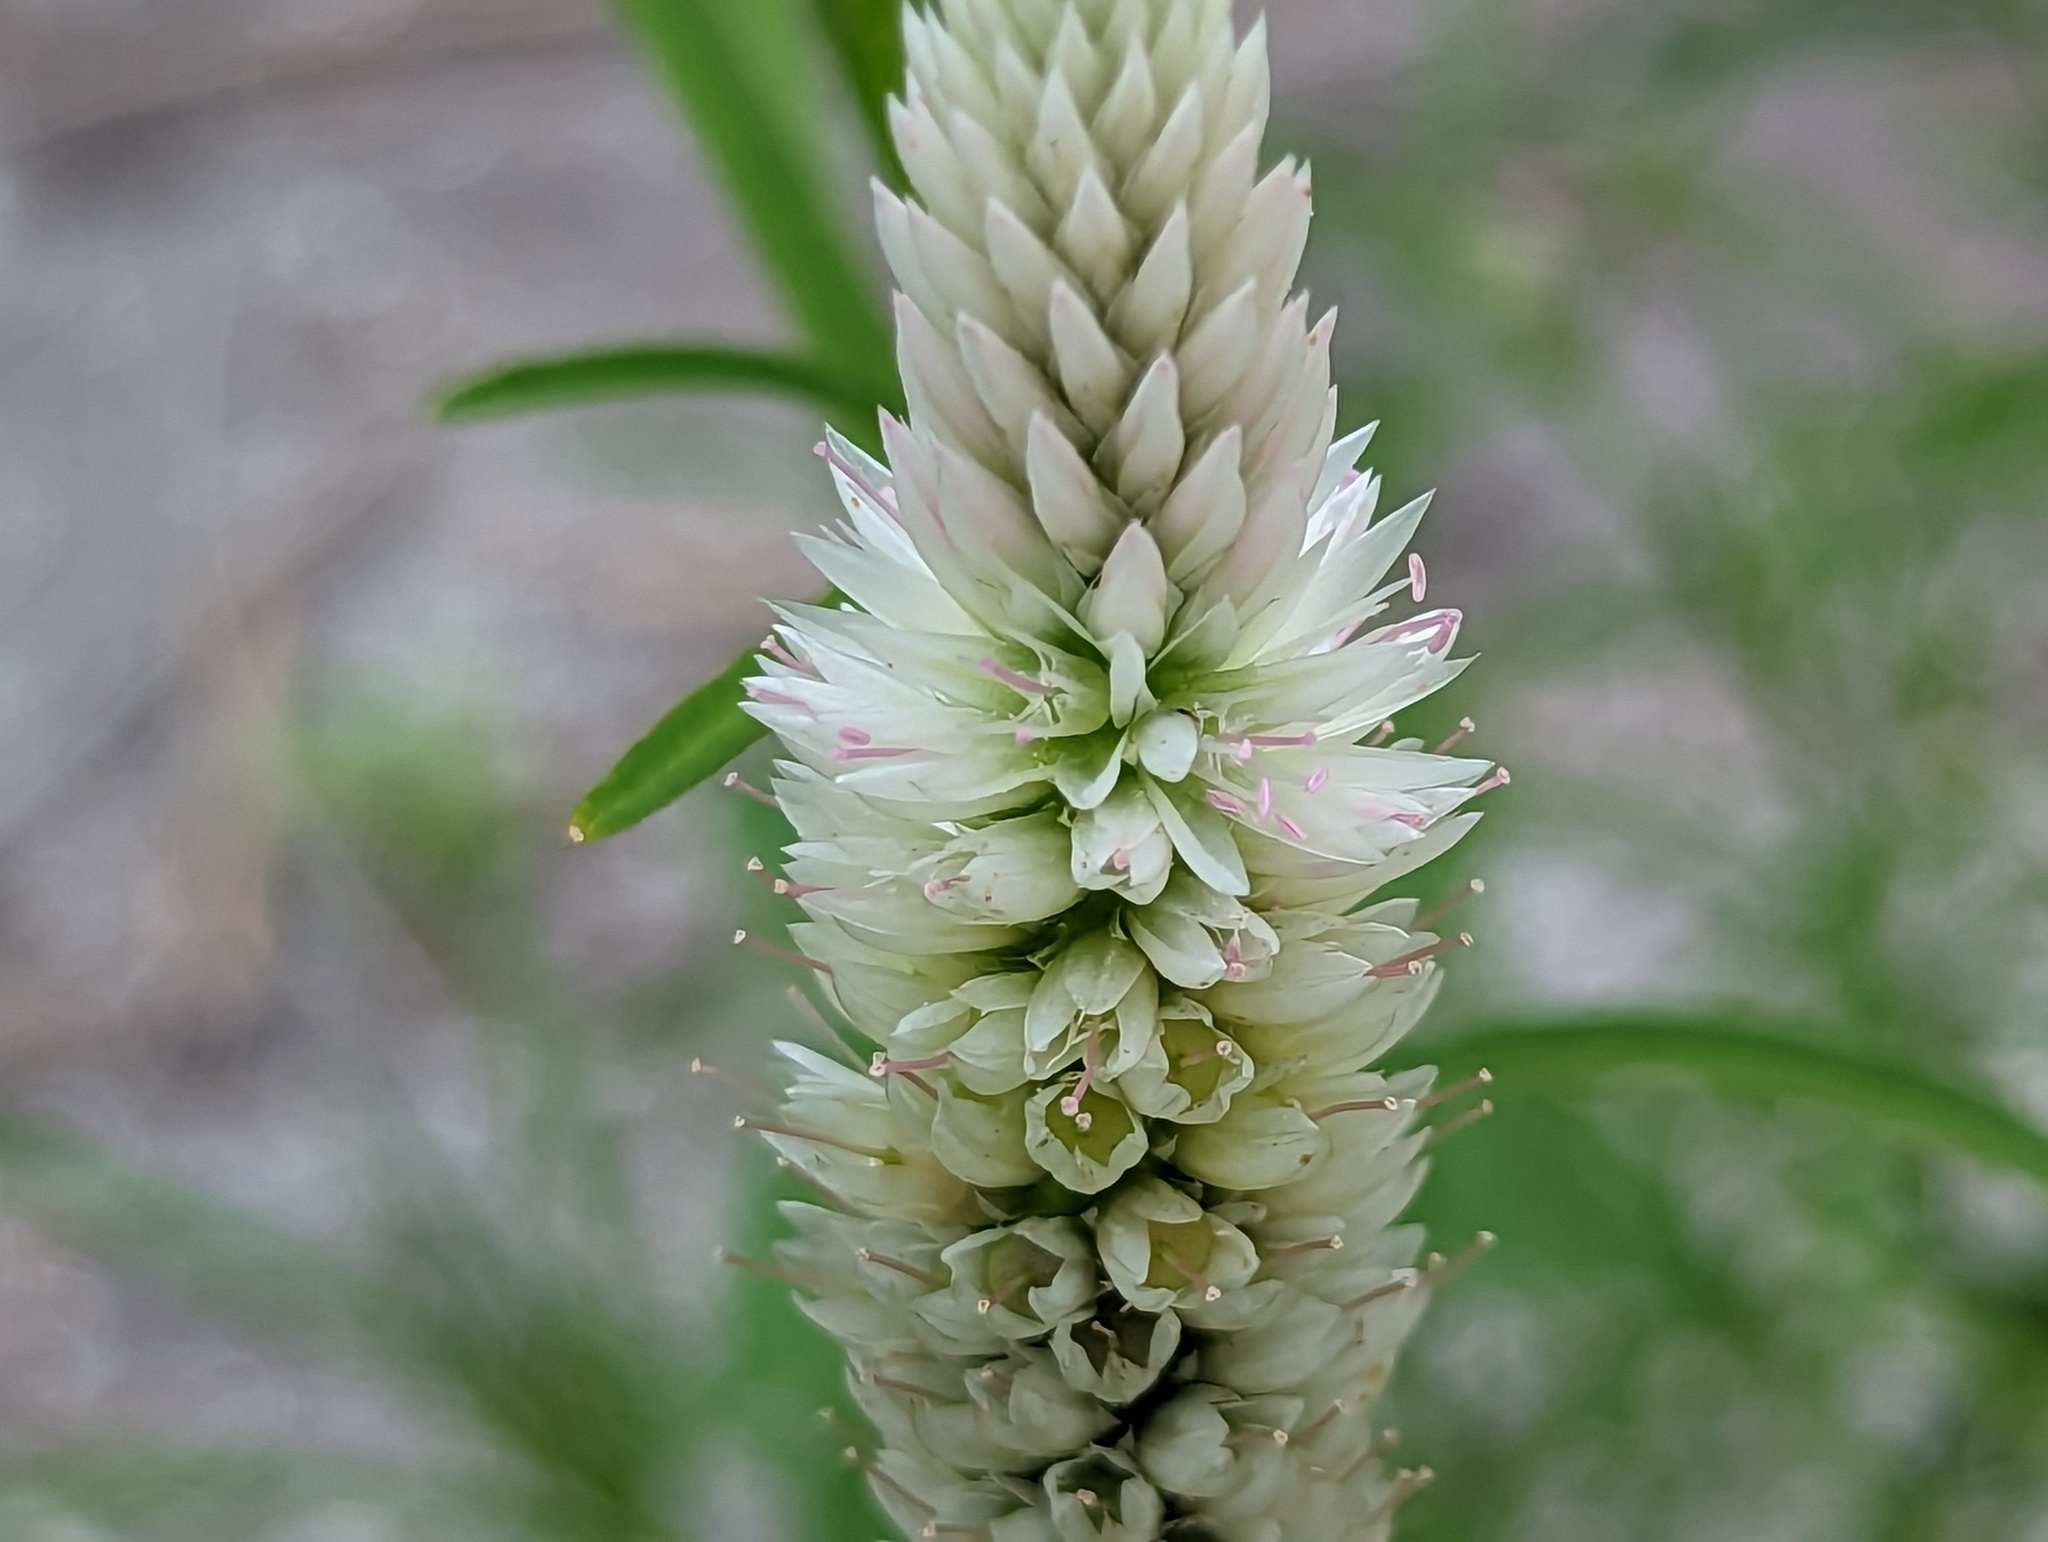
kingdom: Plantae
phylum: Tracheophyta
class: Magnoliopsida
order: Caryophyllales
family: Amaranthaceae
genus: Celosia
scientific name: Celosia argentea
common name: Feather cockscomb
